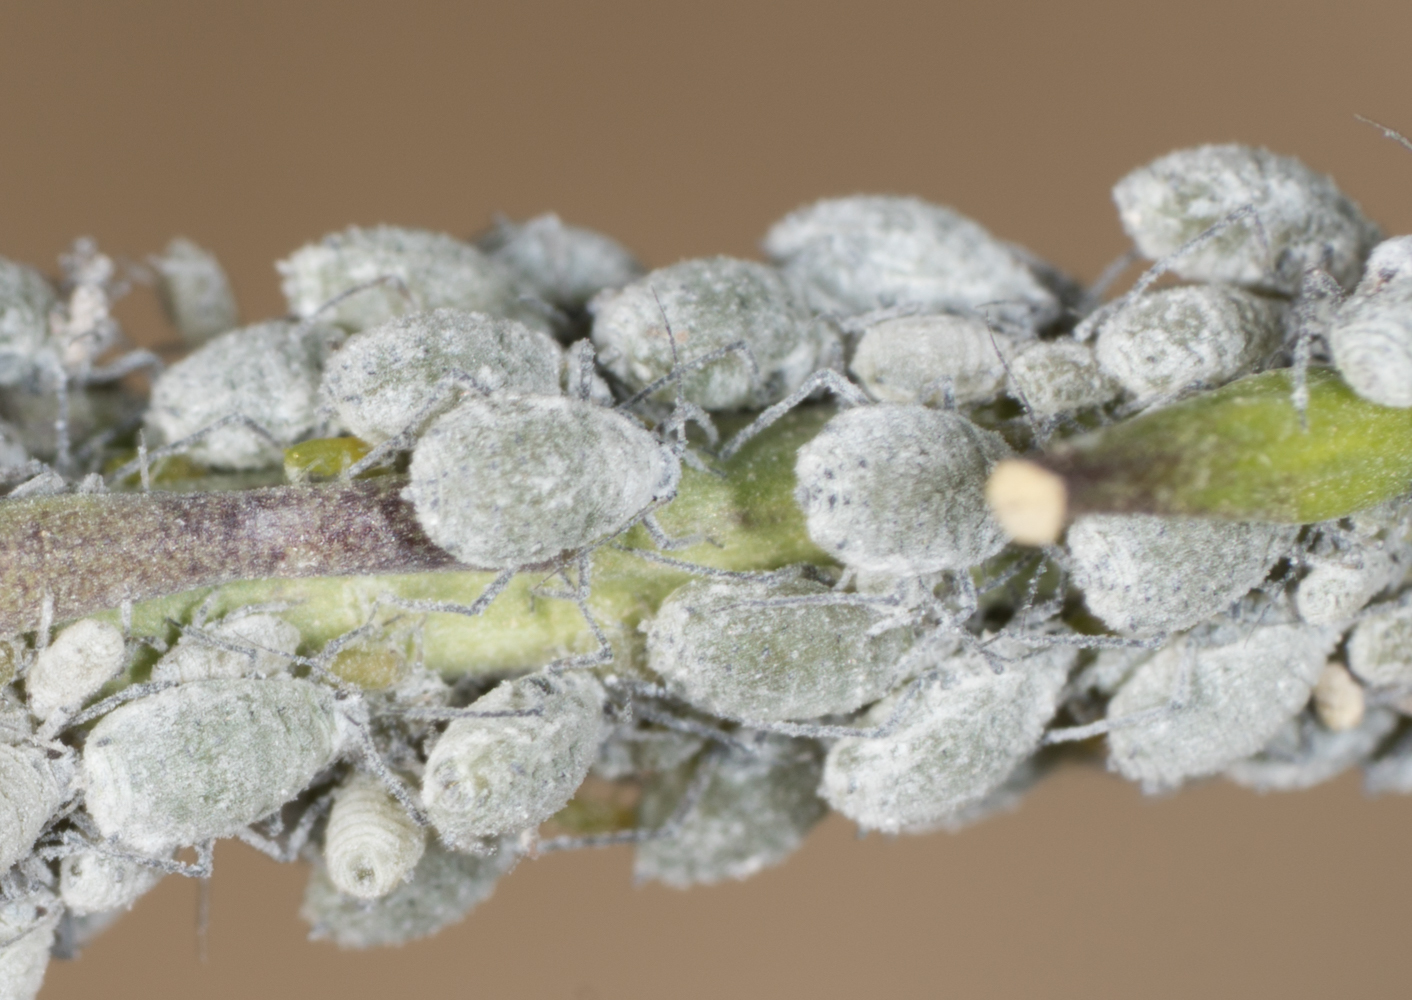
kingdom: Animalia
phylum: Arthropoda
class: Insecta
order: Hemiptera
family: Aphididae
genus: Brevicoryne
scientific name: Brevicoryne brassicae
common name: Cabbage aphid
